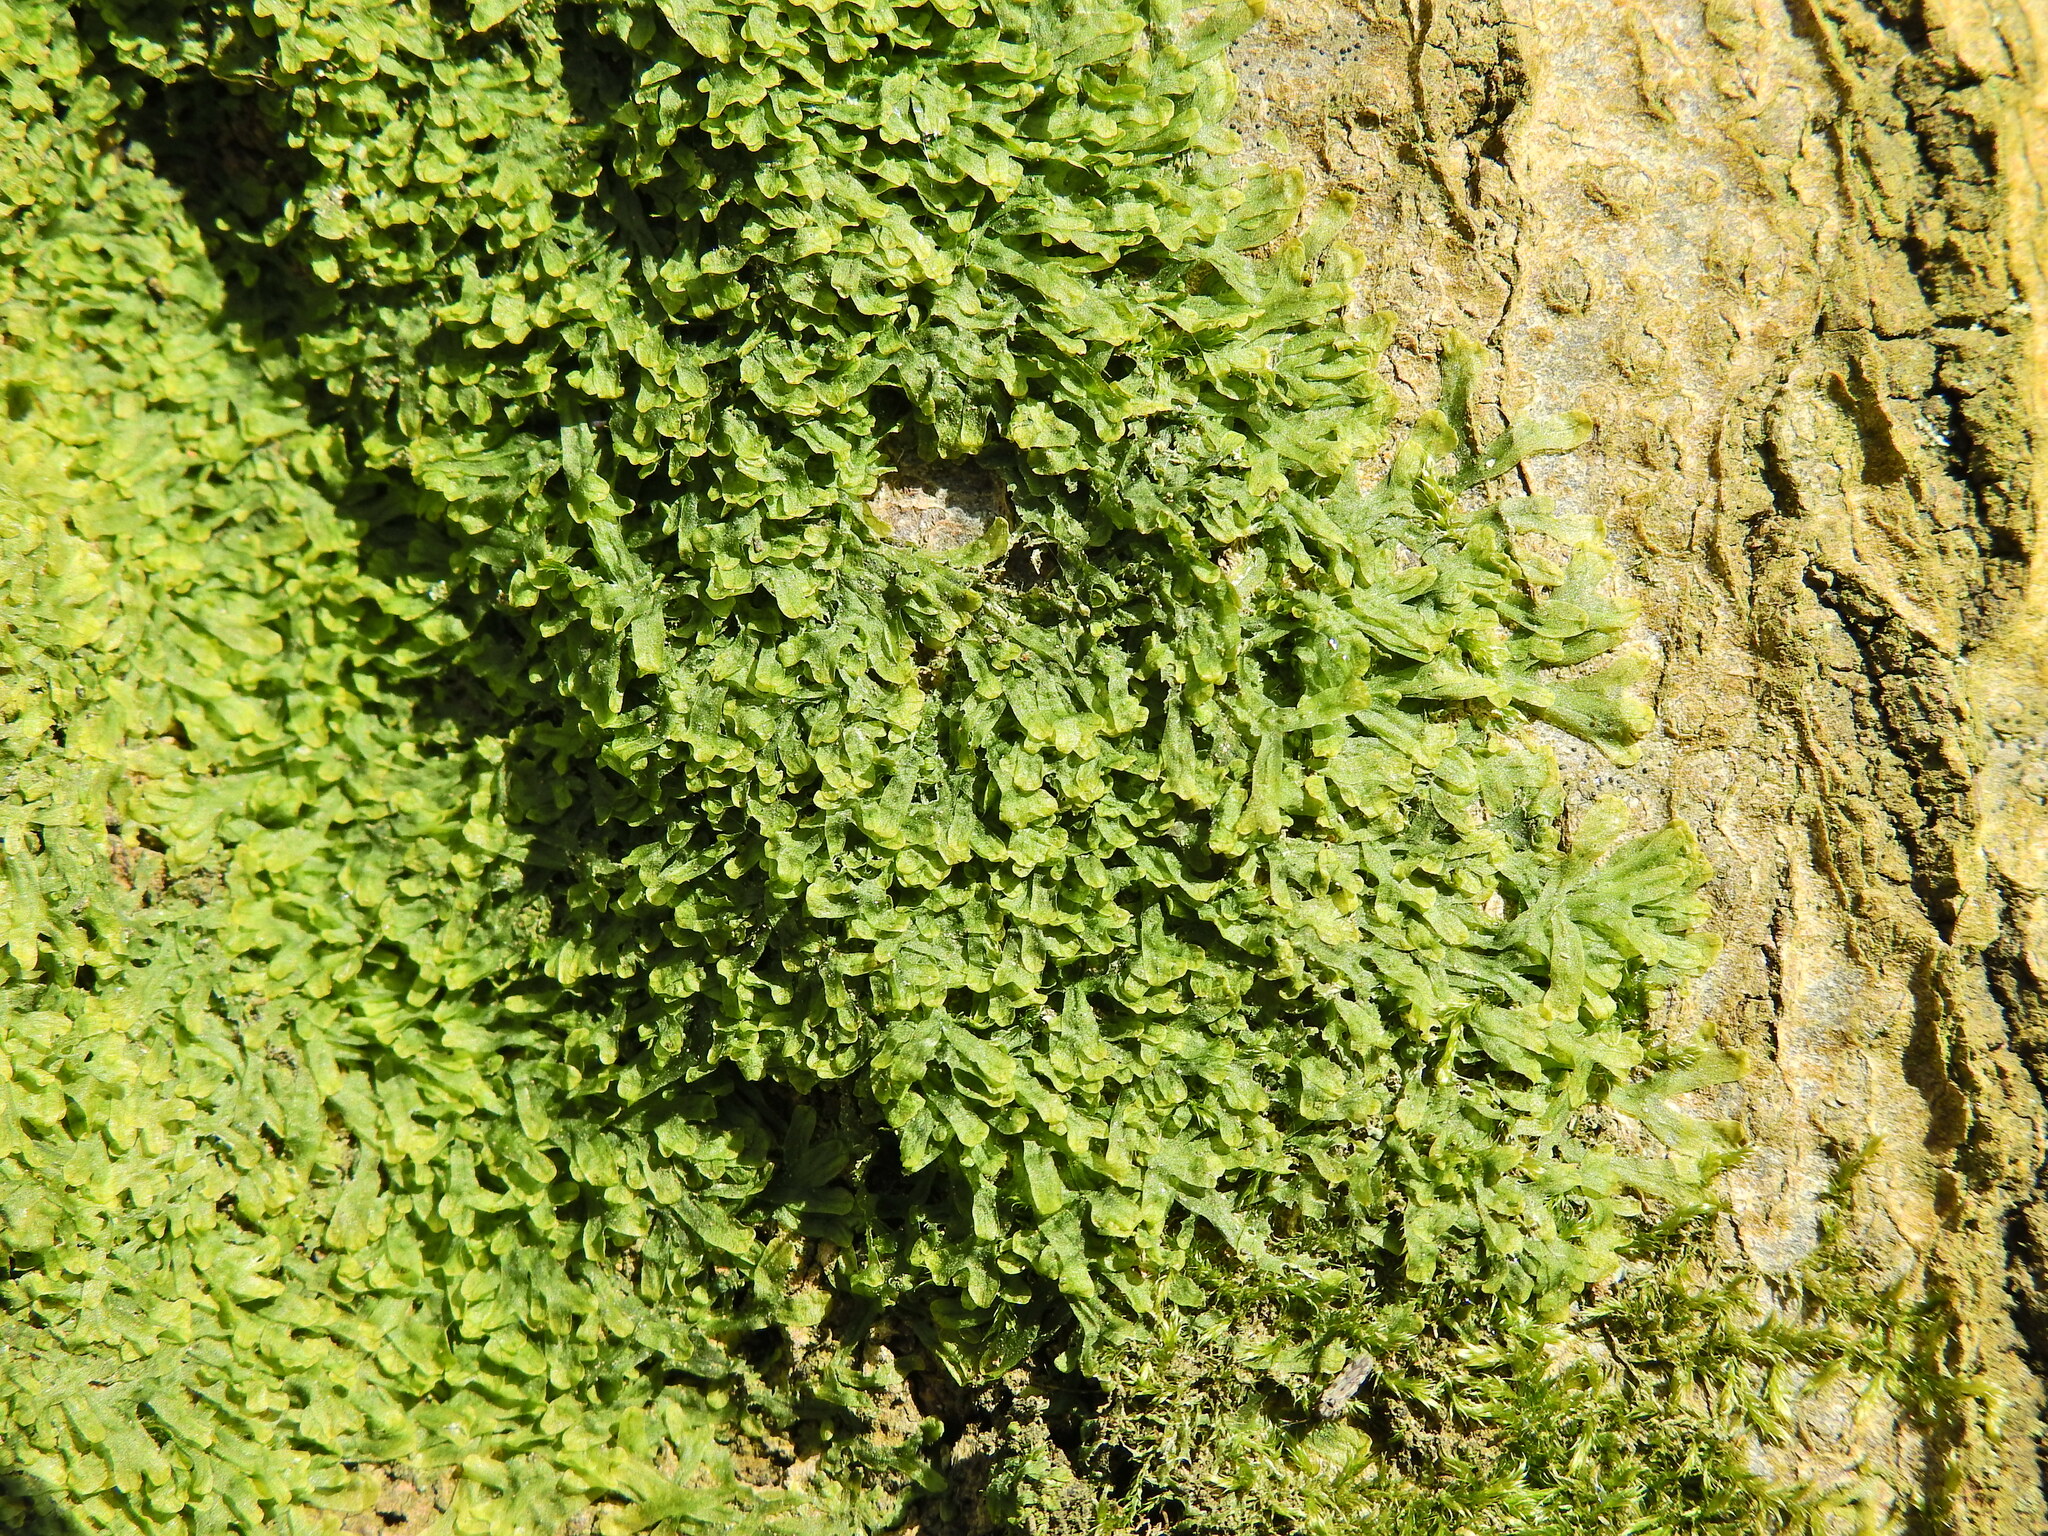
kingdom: Plantae
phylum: Marchantiophyta
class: Jungermanniopsida
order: Metzgeriales
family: Metzgeriaceae
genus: Metzgeria
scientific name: Metzgeria furcata
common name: Forked veilwort
